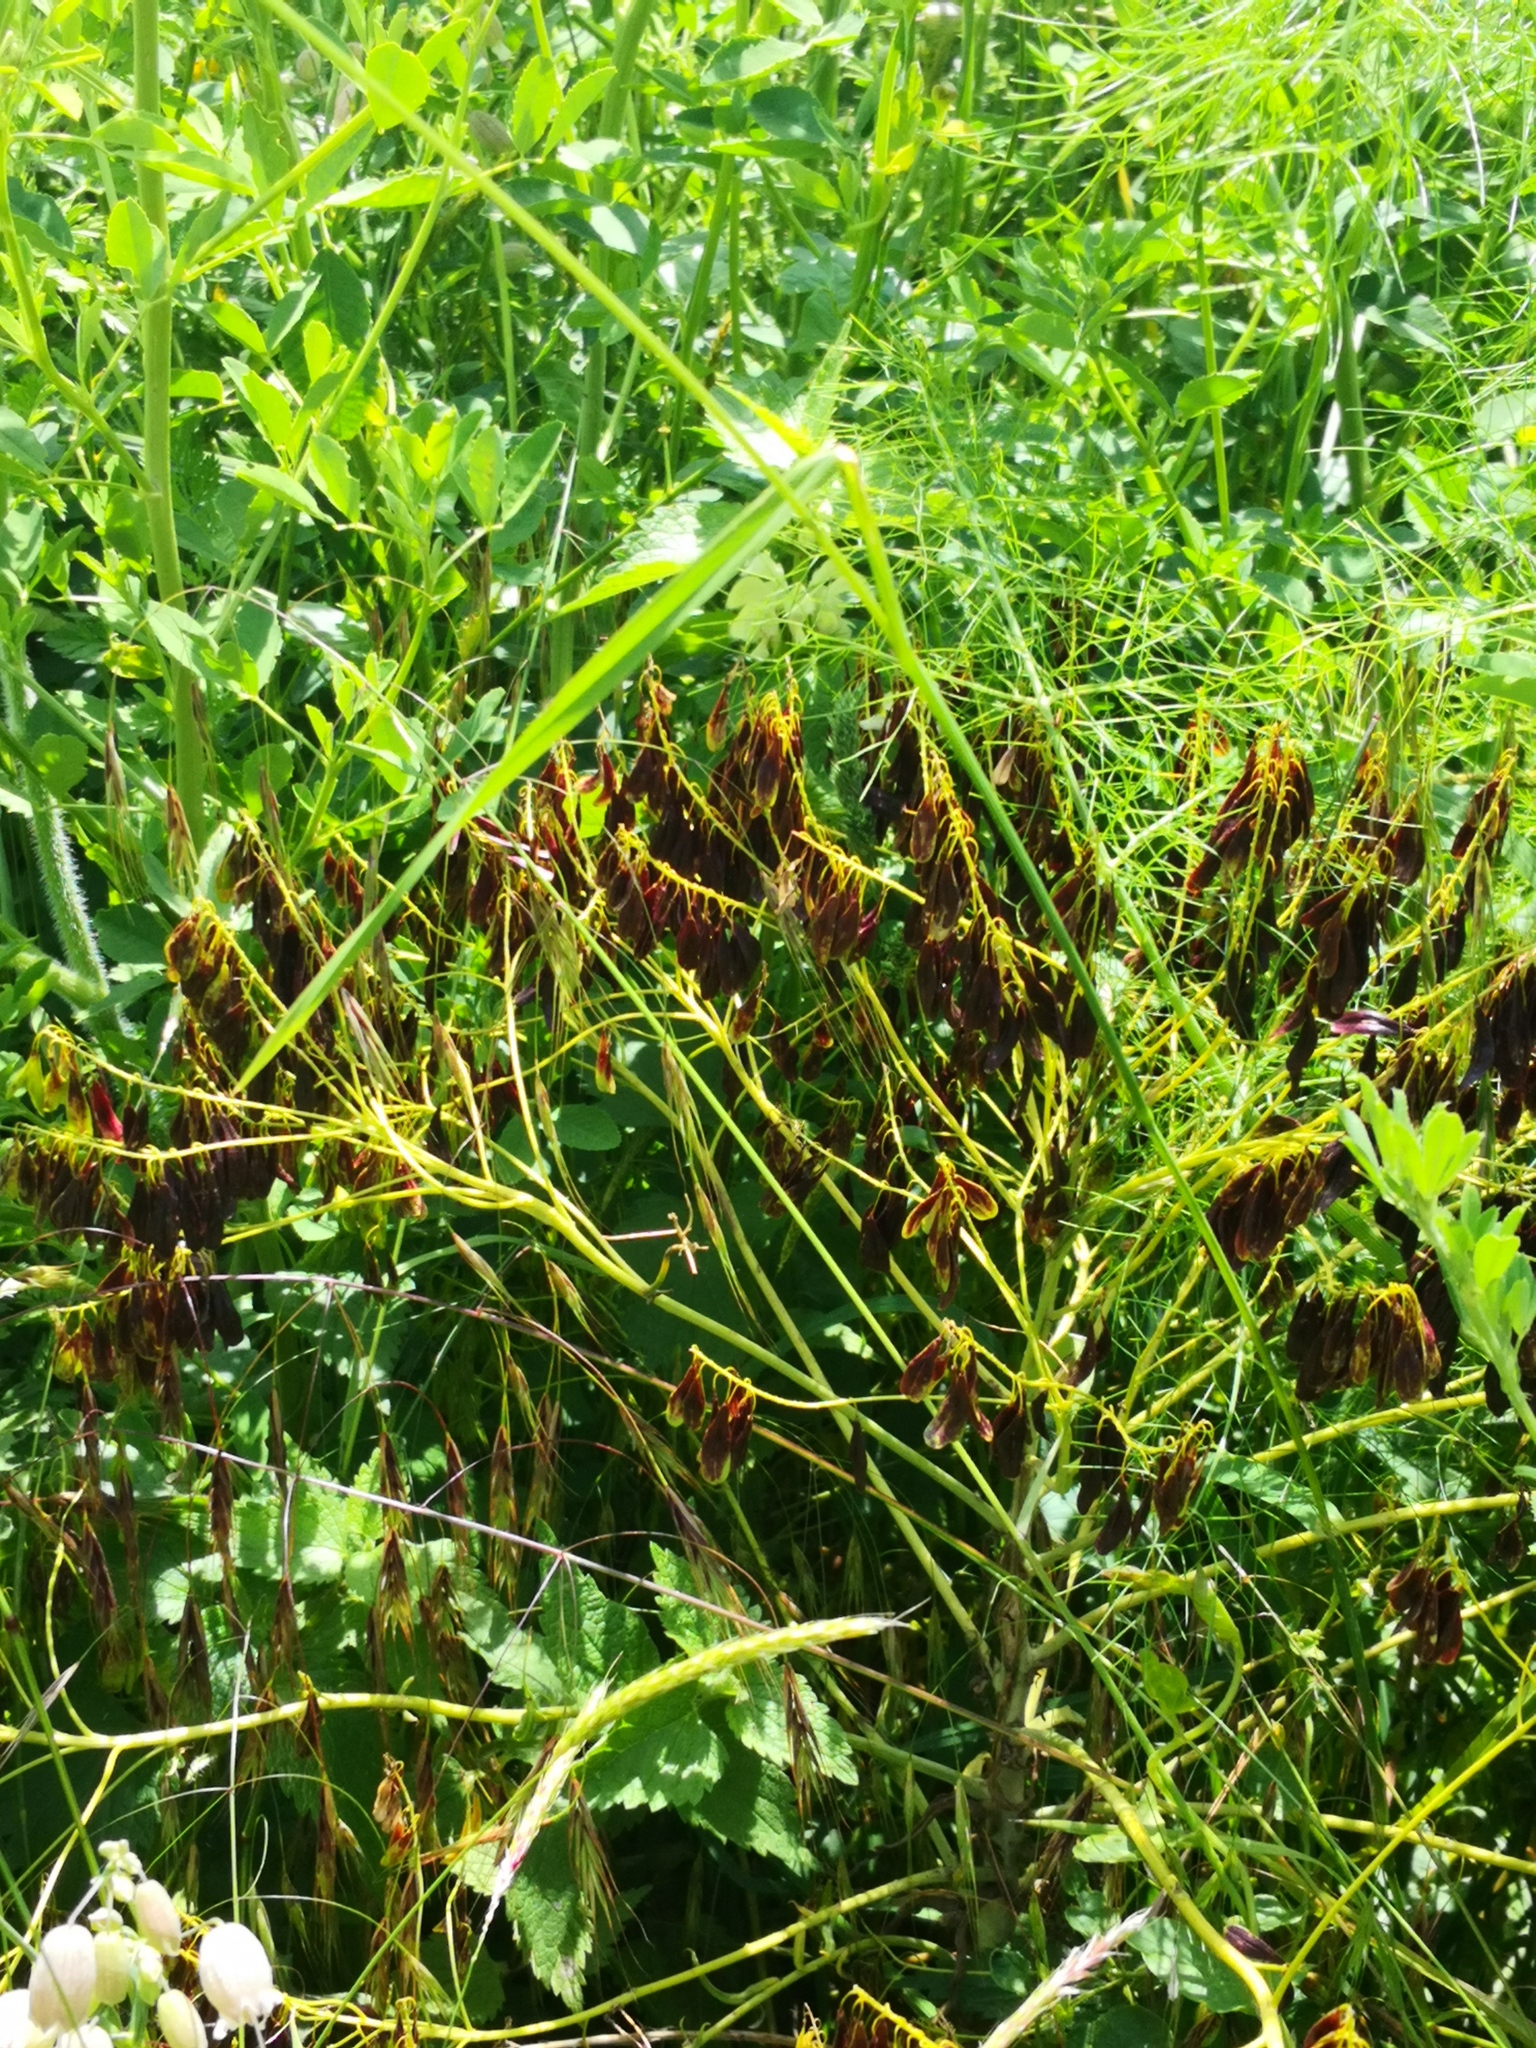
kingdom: Plantae
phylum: Tracheophyta
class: Magnoliopsida
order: Brassicales
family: Brassicaceae
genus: Isatis
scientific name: Isatis tinctoria
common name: Woad
